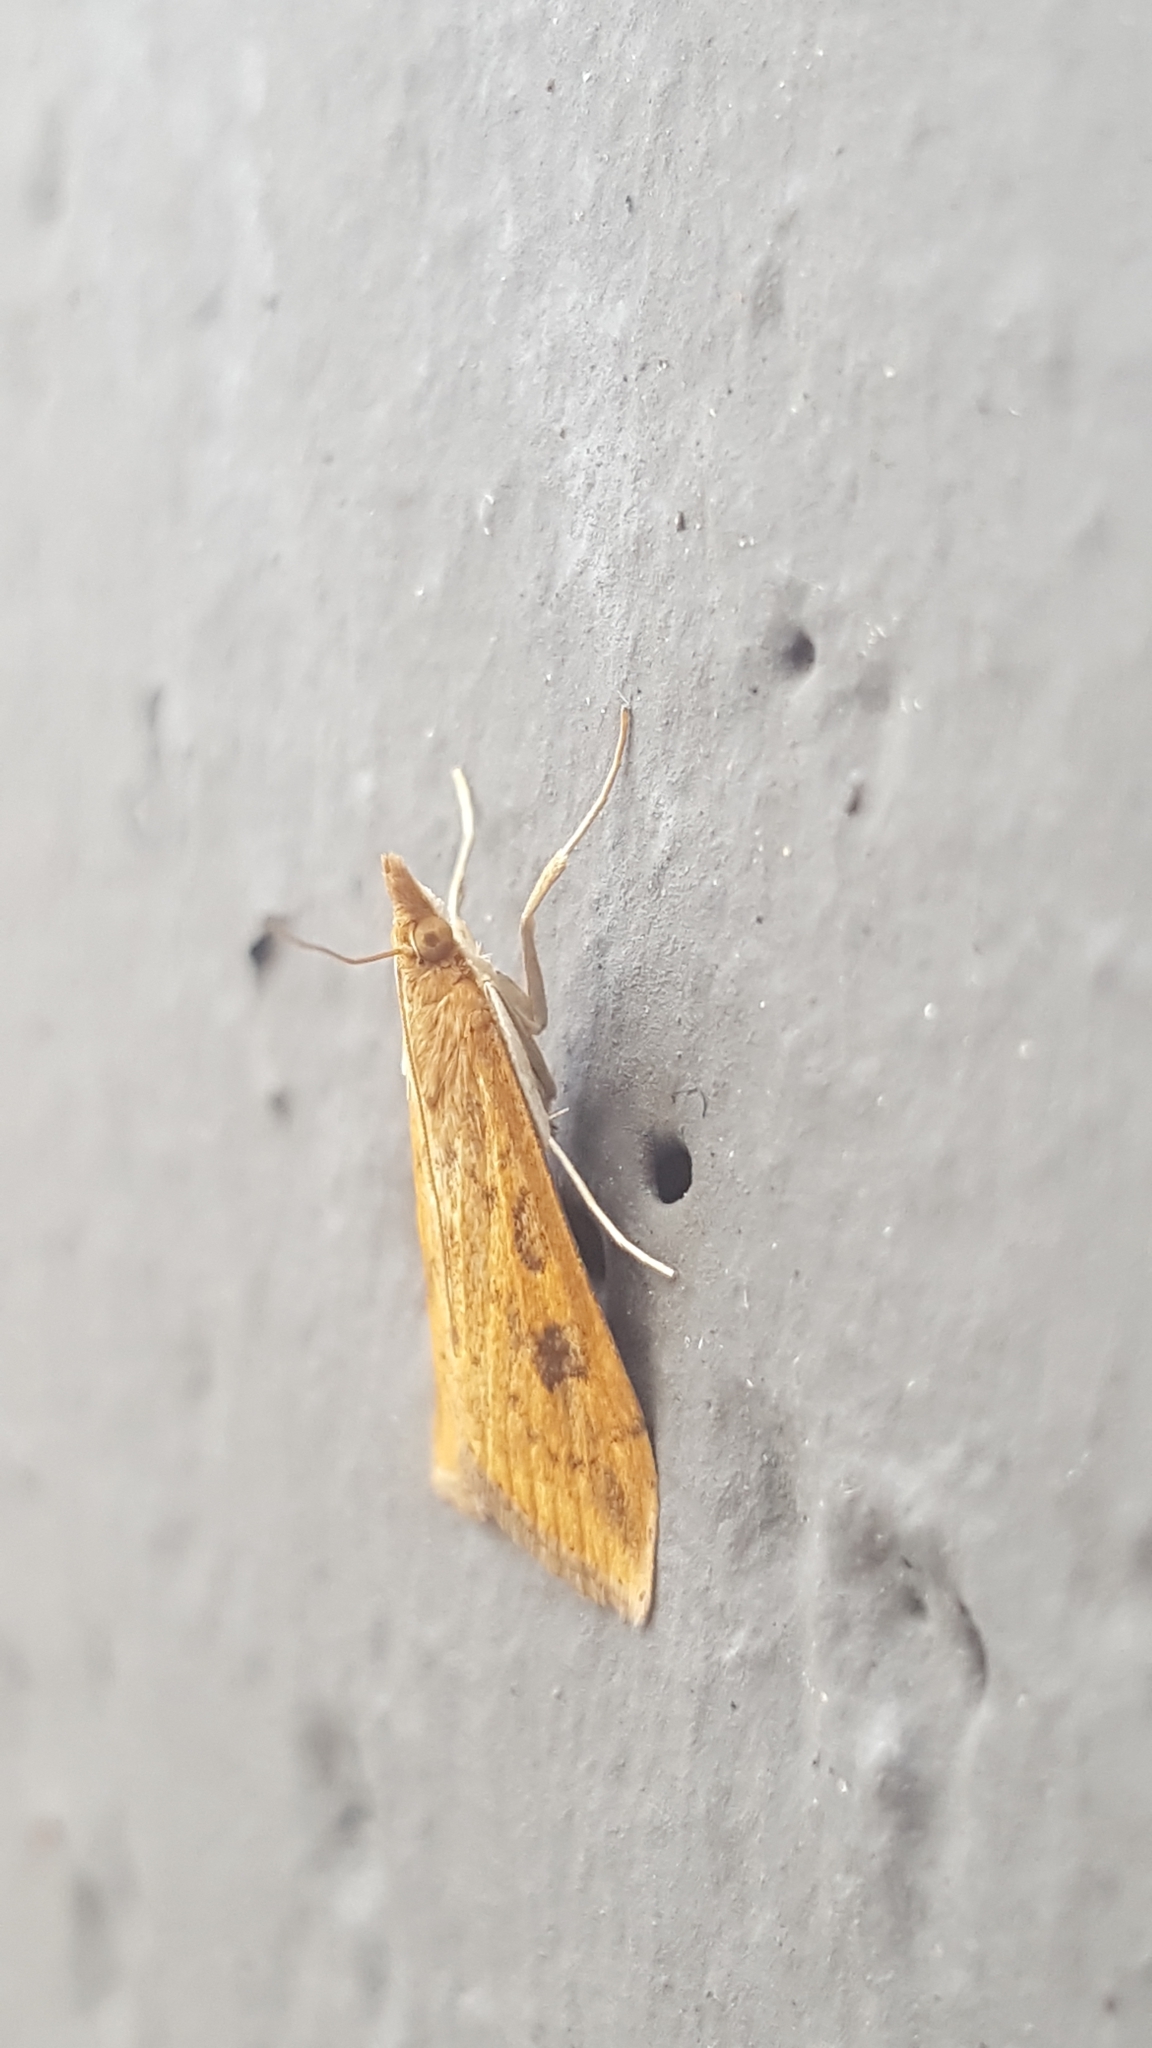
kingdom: Animalia
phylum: Arthropoda
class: Insecta
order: Lepidoptera
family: Crambidae
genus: Udea
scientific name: Udea ferrugalis
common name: Rusty dot
